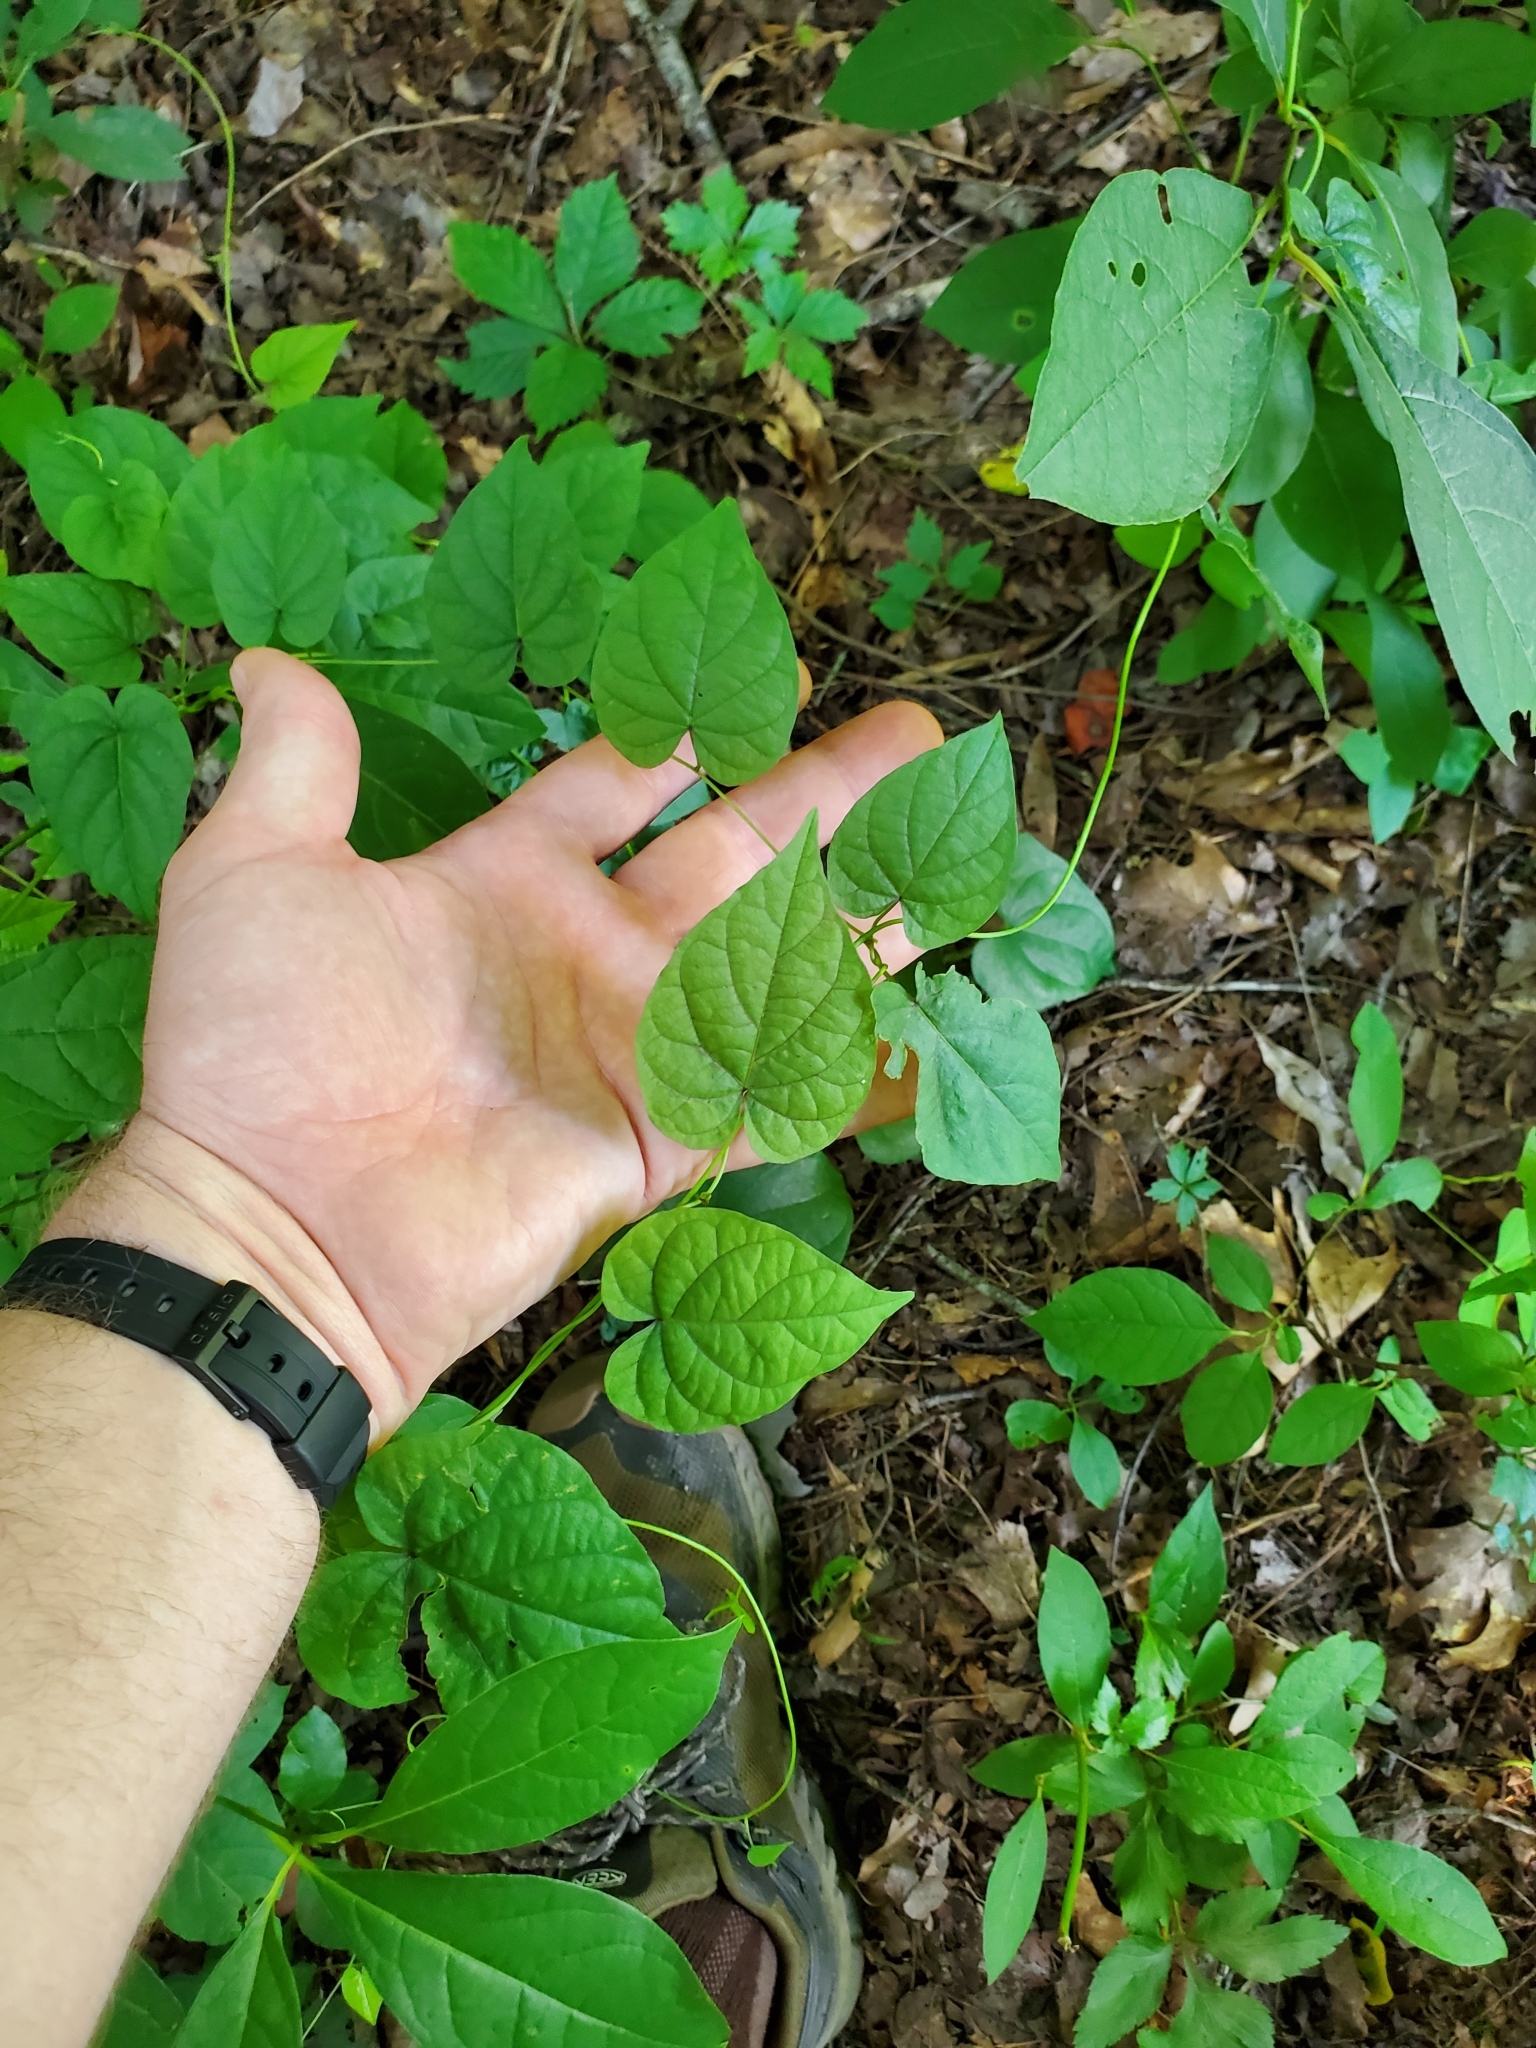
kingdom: Plantae
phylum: Tracheophyta
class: Magnoliopsida
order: Solanales
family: Convolvulaceae
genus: Ipomoea
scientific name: Ipomoea pandurata
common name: Man-of-the-earth
